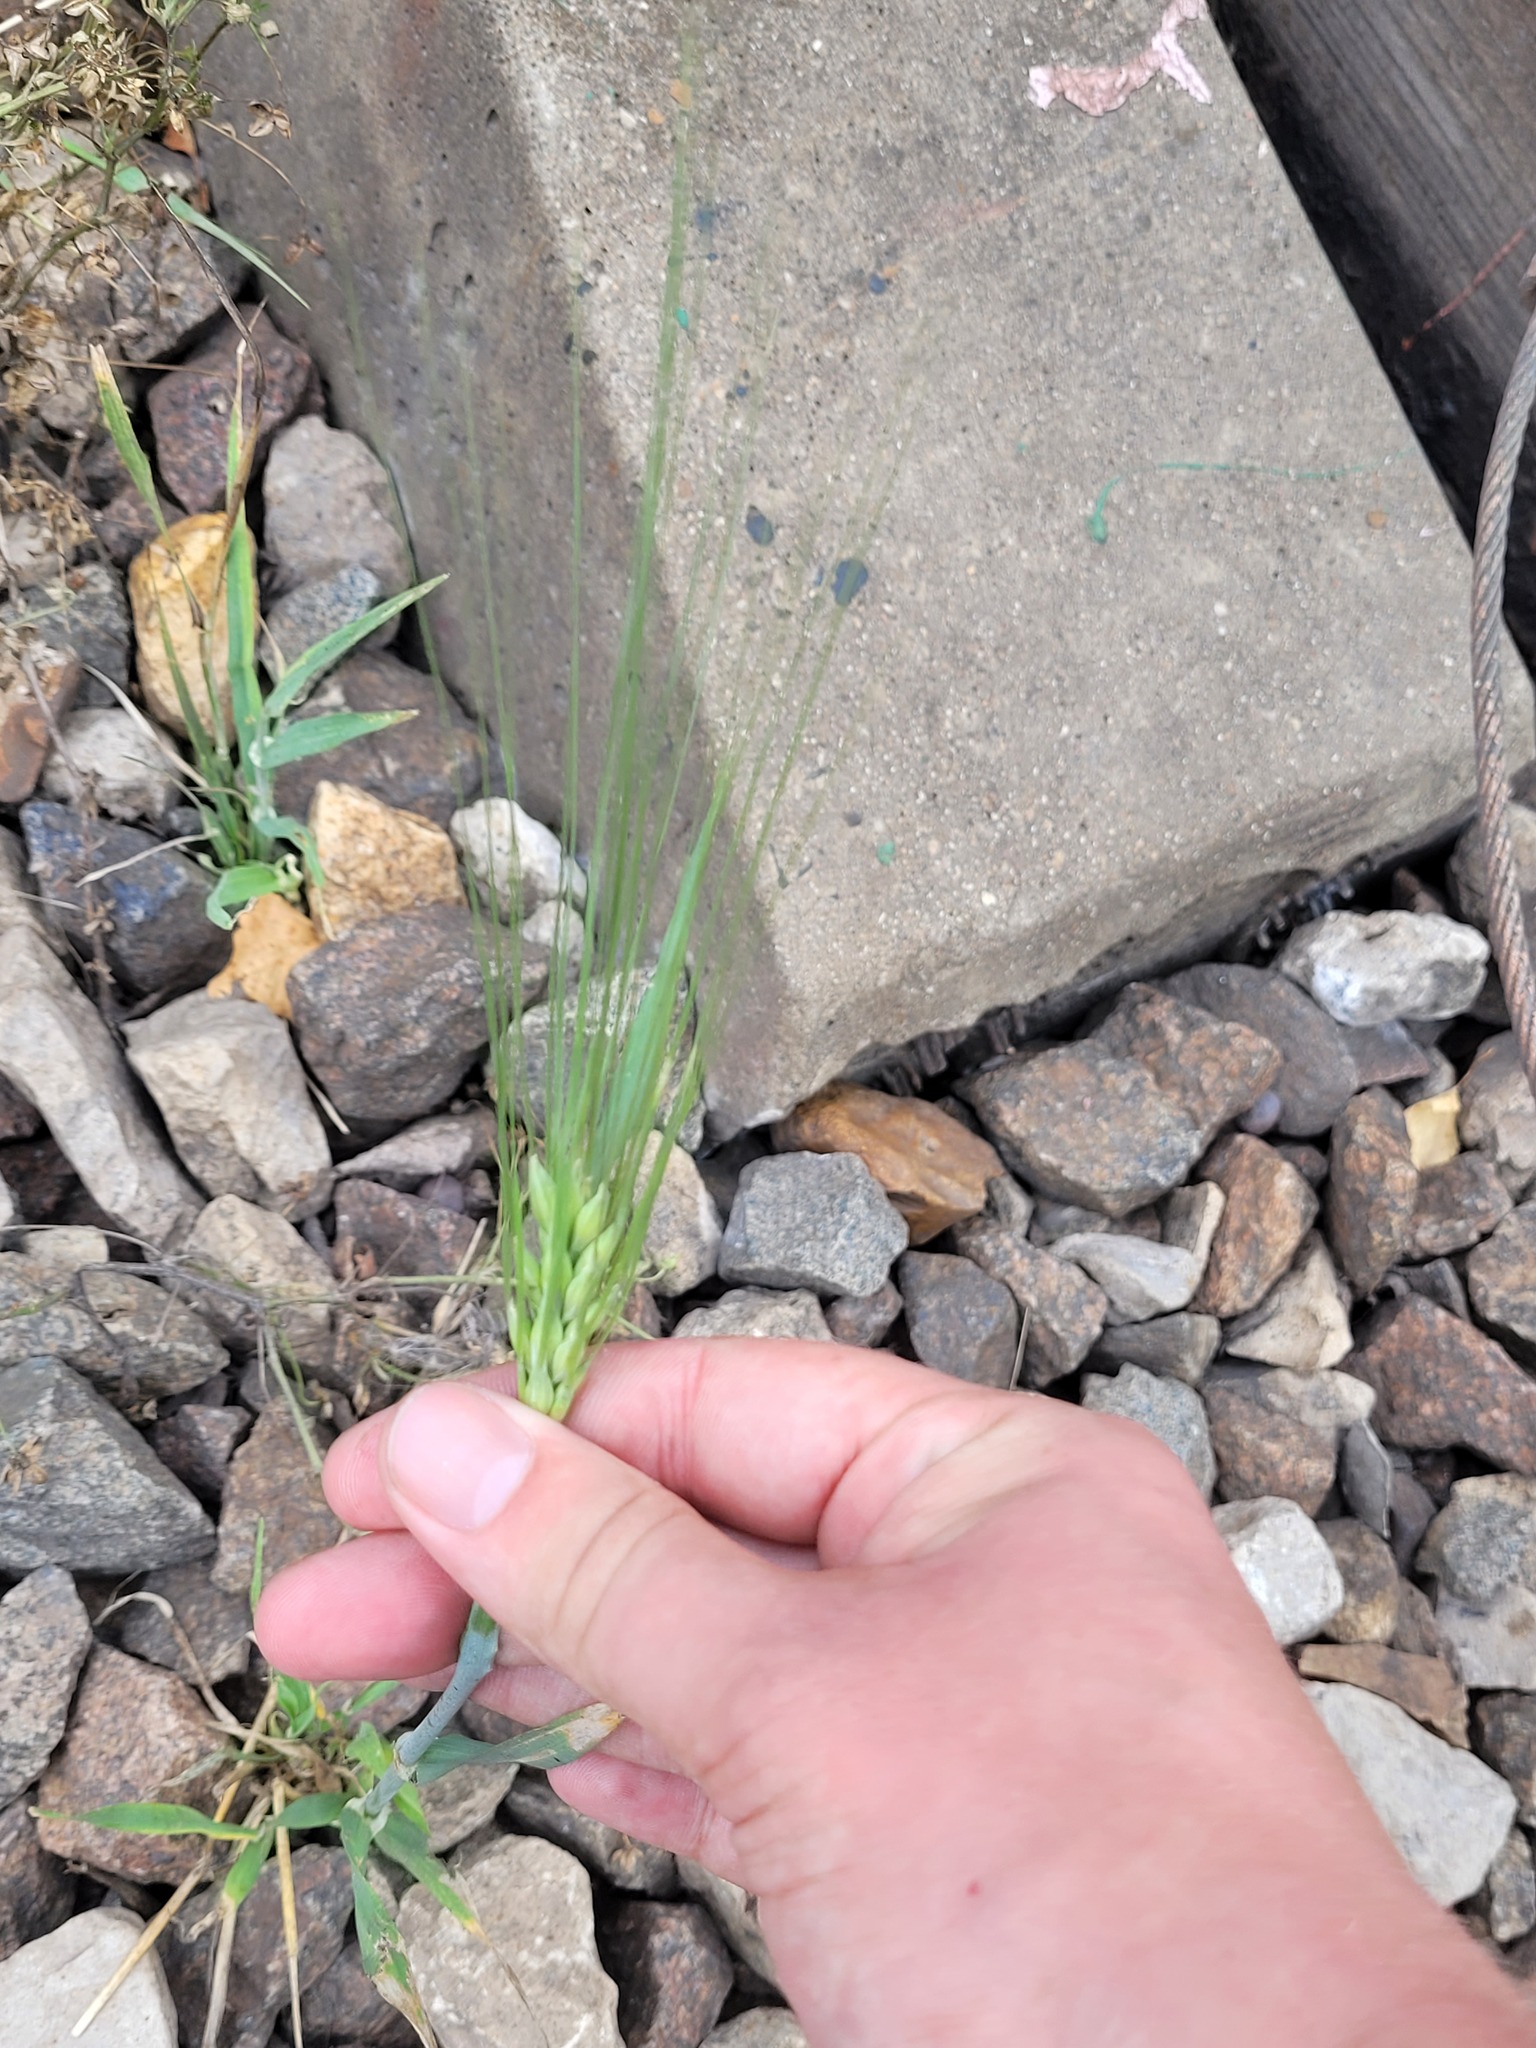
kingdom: Plantae
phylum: Tracheophyta
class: Liliopsida
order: Poales
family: Poaceae
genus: Hordeum
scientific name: Hordeum vulgare
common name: Common barley
